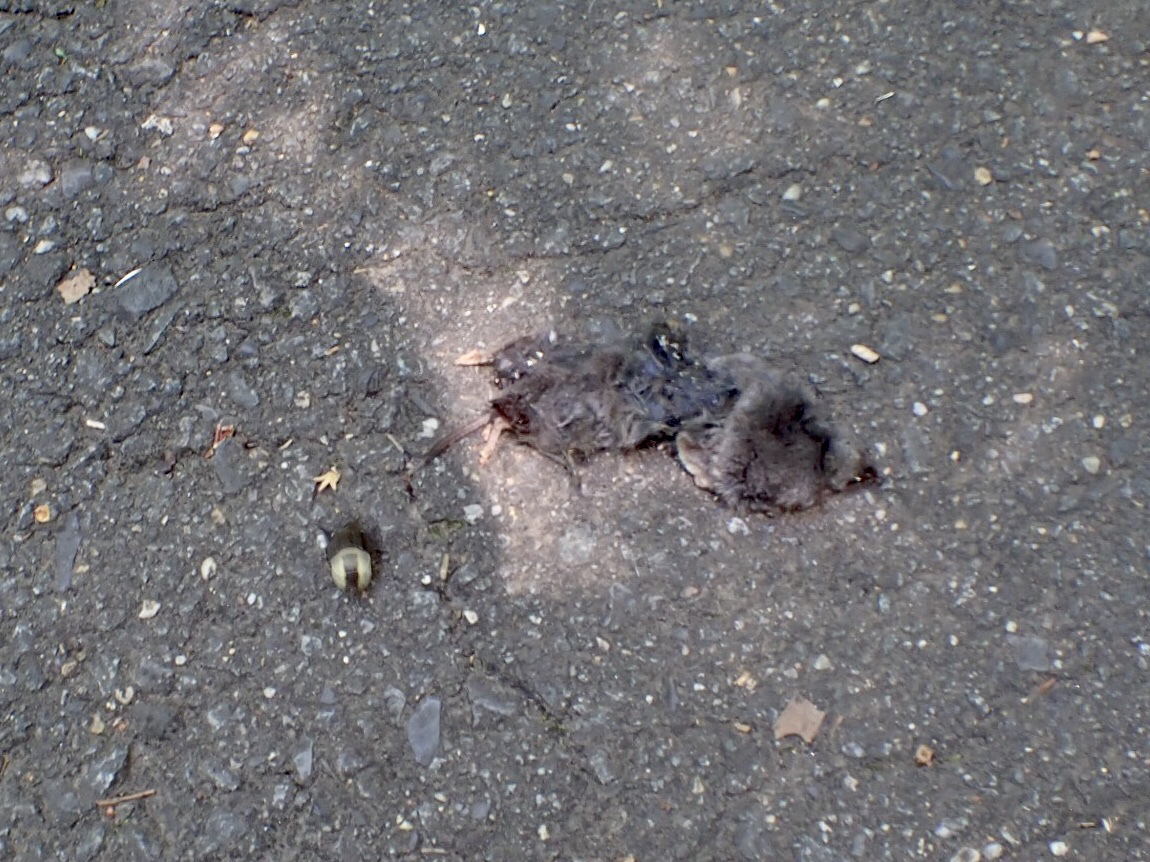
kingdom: Animalia
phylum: Arthropoda
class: Insecta
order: Coleoptera
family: Staphylinidae
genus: Necrophila
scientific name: Necrophila americana
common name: American carrion beetle
